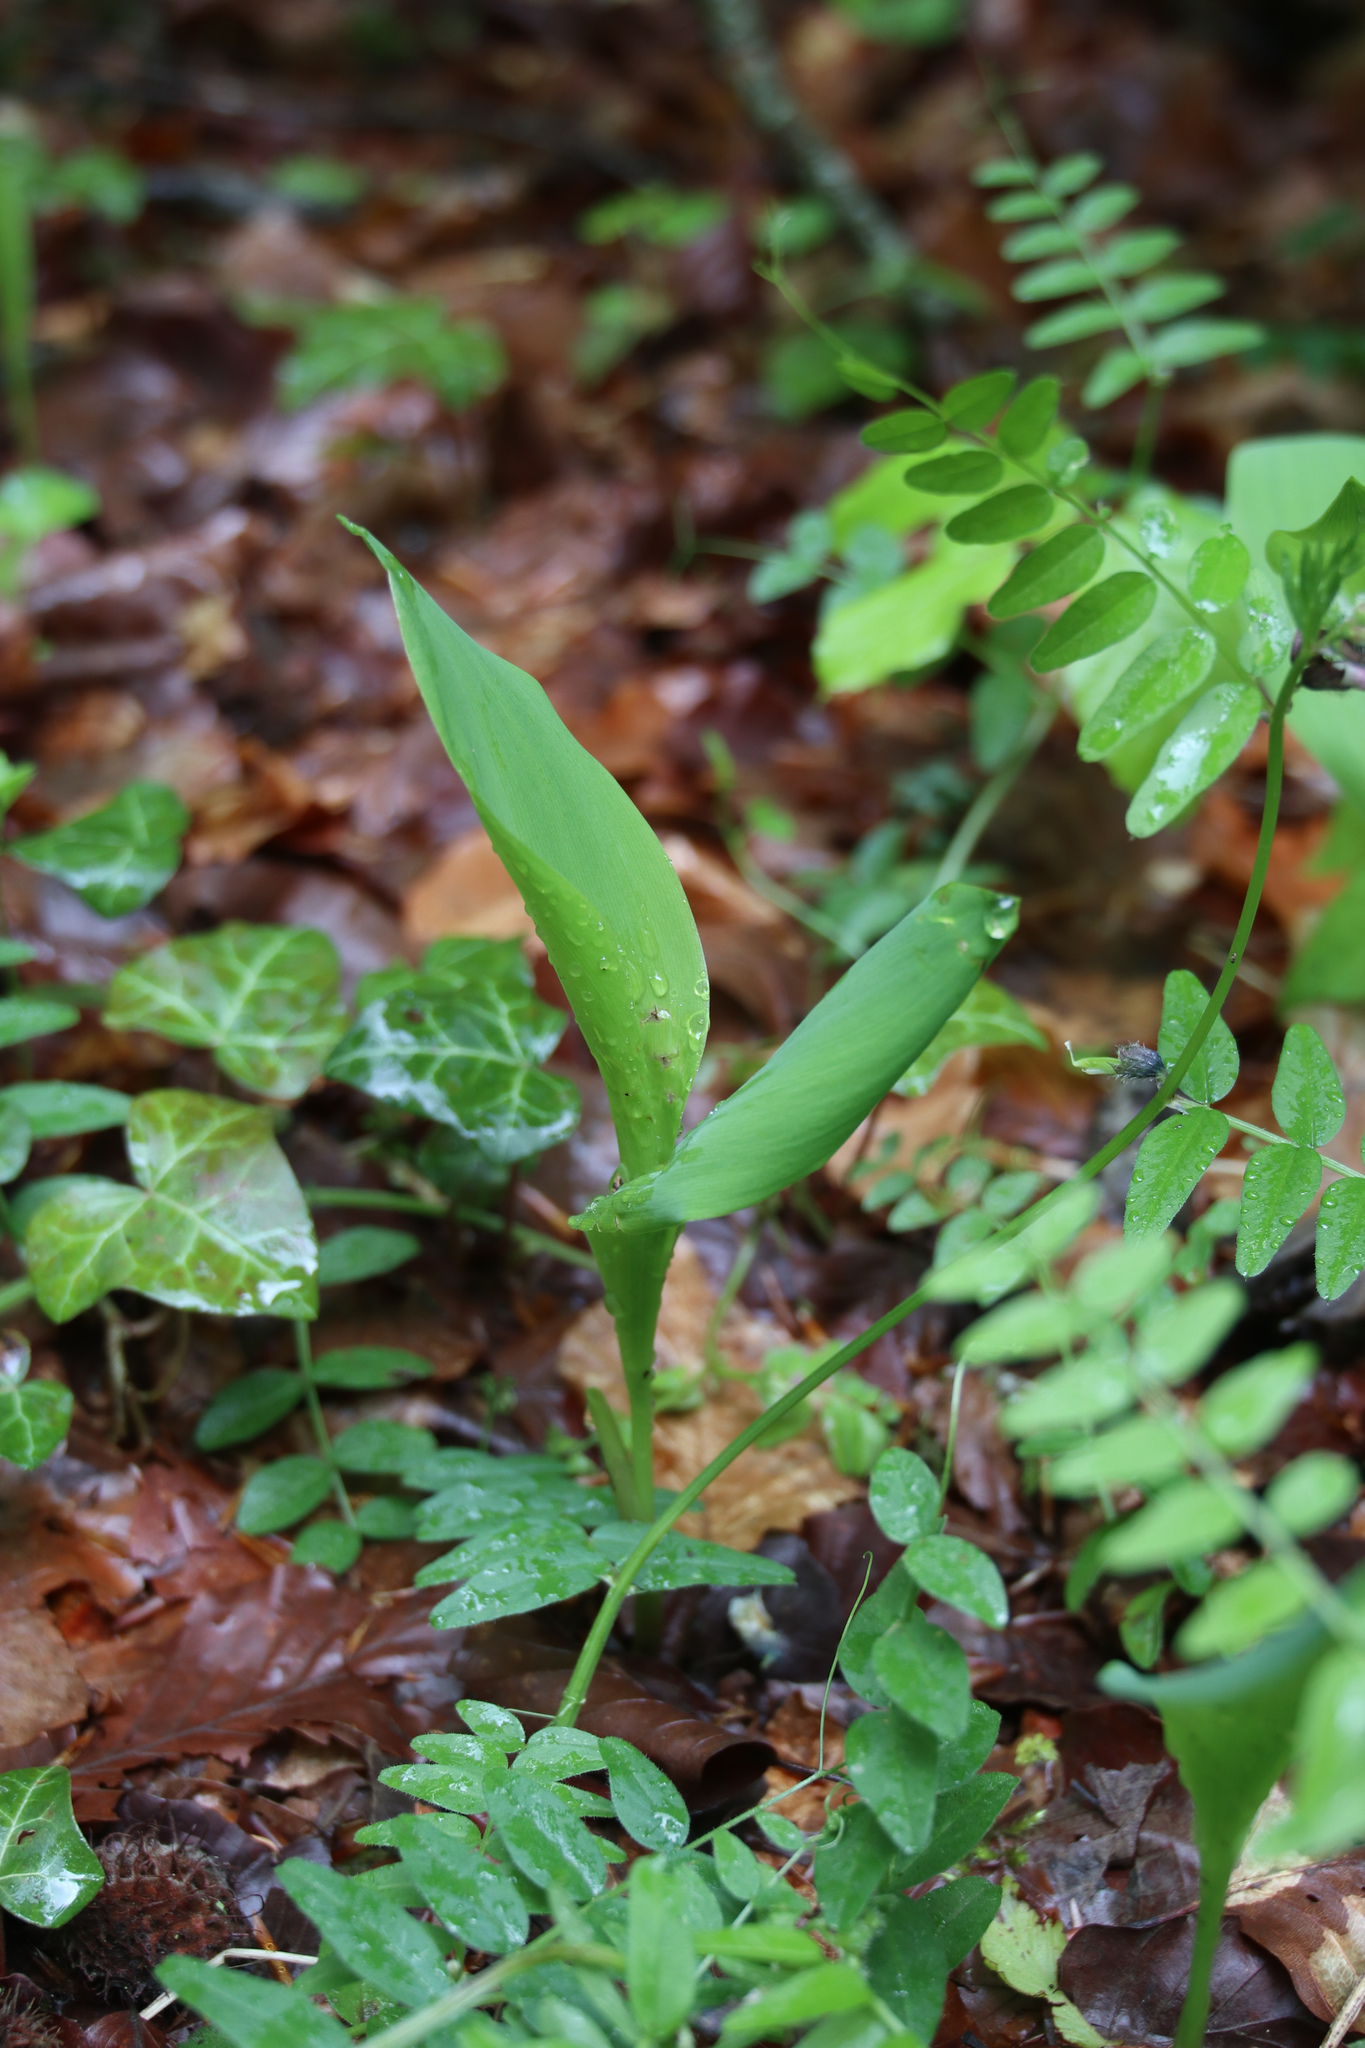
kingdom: Plantae
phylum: Tracheophyta
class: Liliopsida
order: Asparagales
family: Asparagaceae
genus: Convallaria
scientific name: Convallaria majalis
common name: Lily-of-the-valley
